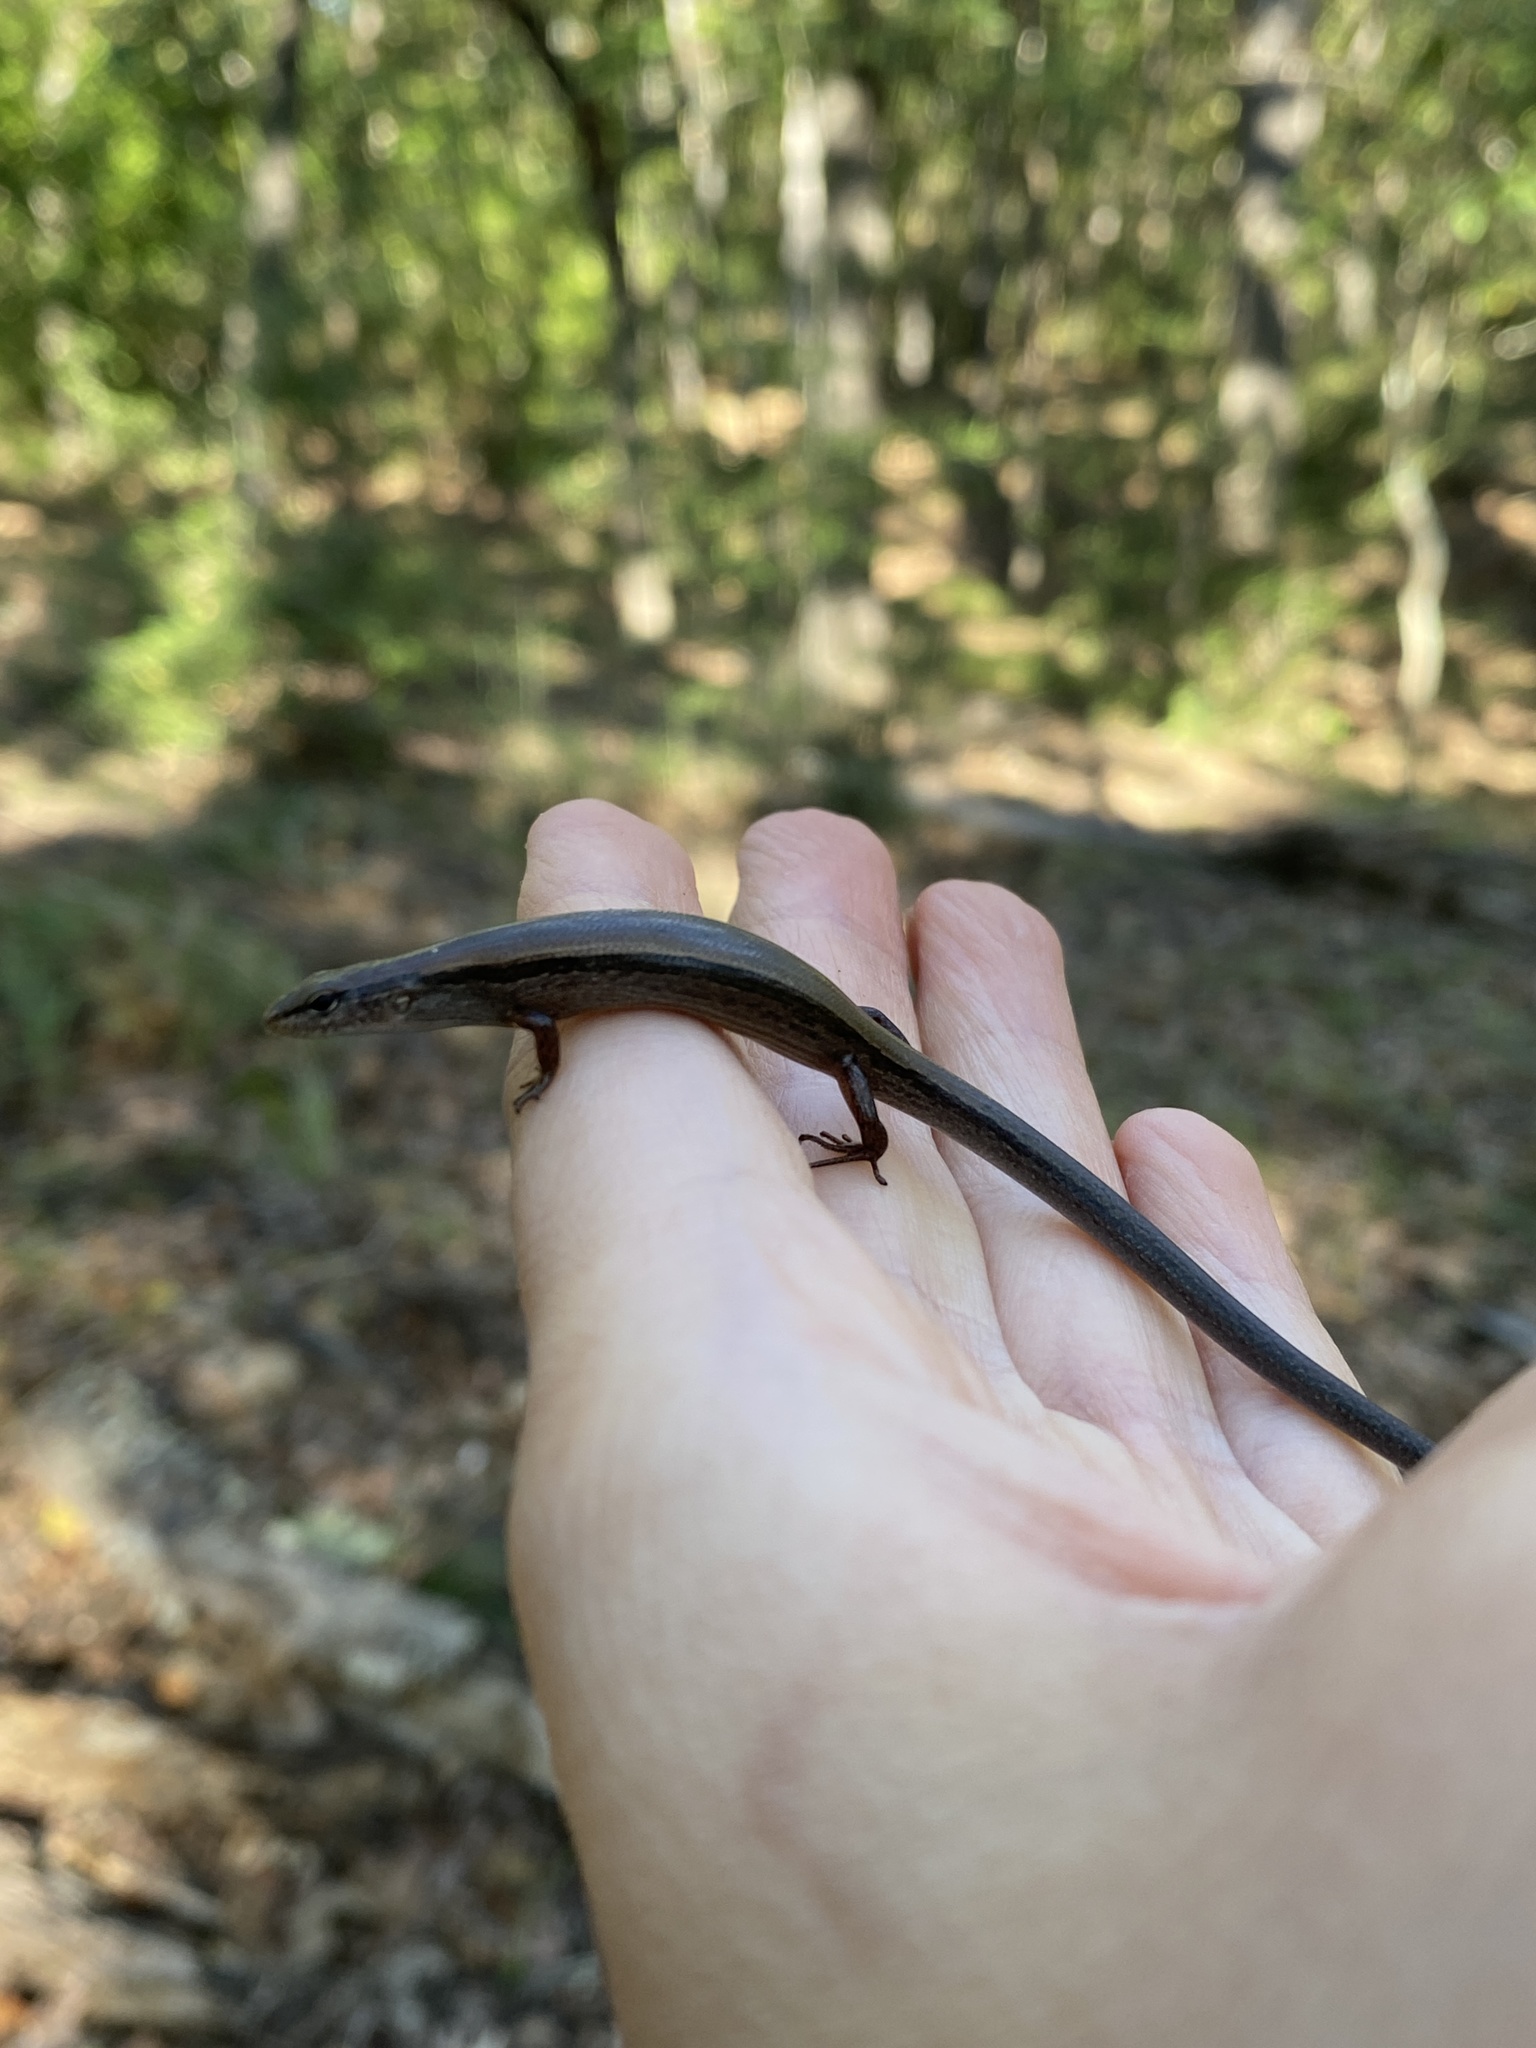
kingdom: Animalia
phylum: Chordata
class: Squamata
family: Scincidae
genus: Scincella
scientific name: Scincella lateralis
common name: Ground skink
